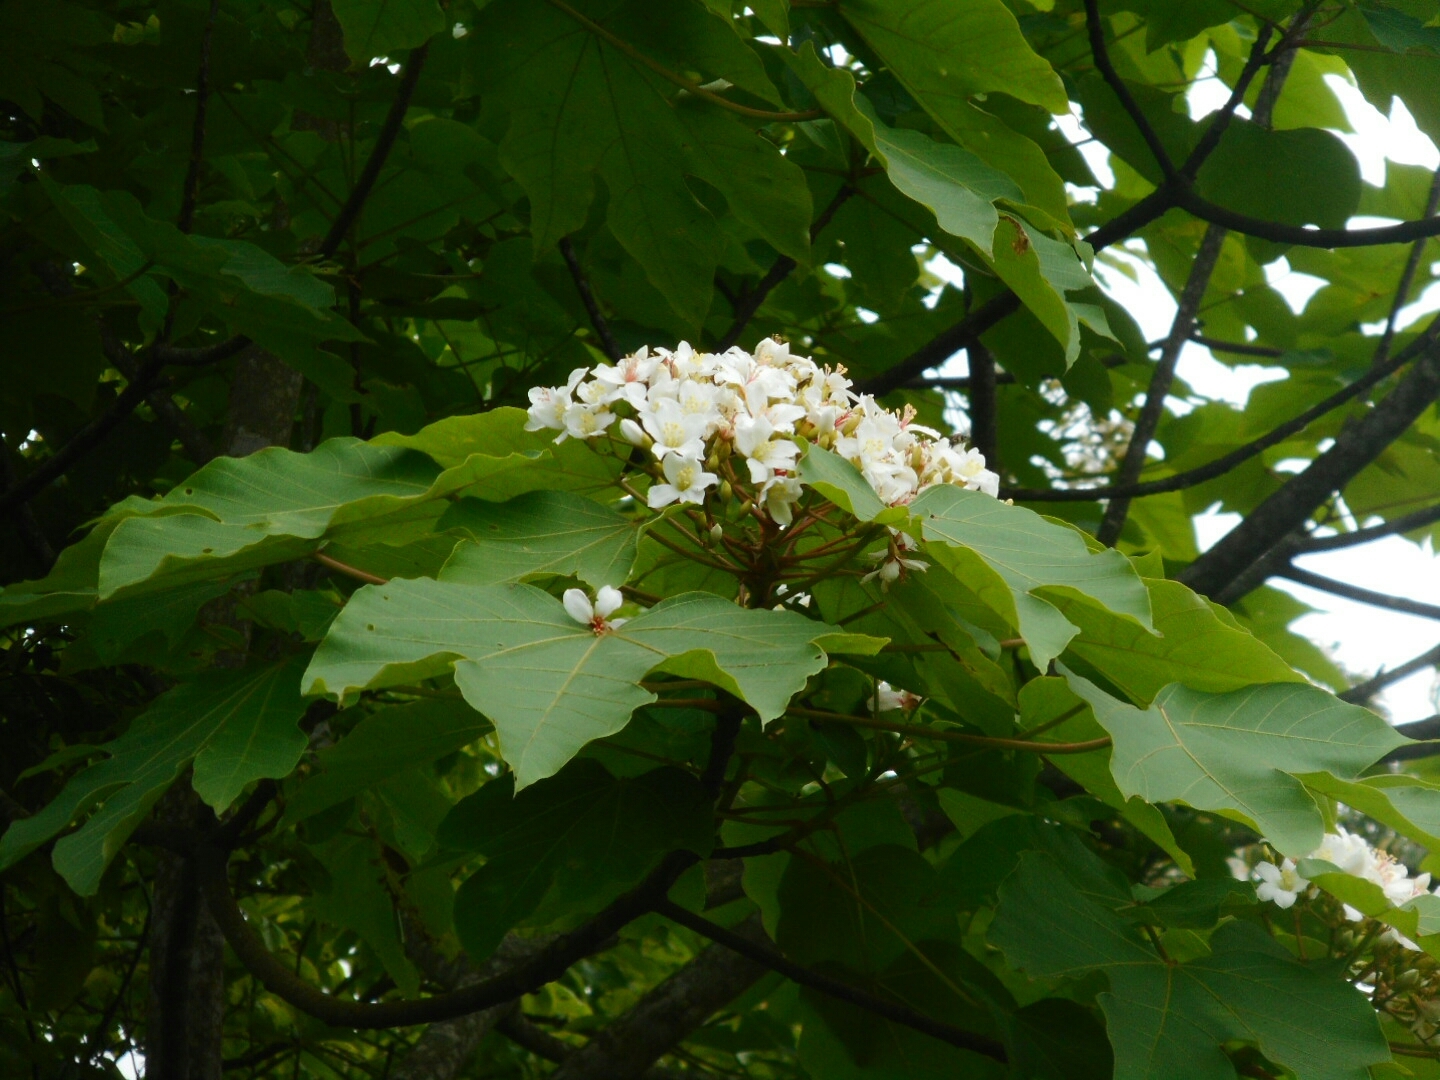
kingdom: Plantae
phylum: Tracheophyta
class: Magnoliopsida
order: Malpighiales
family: Euphorbiaceae
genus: Vernicia
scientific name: Vernicia montana
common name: Mu oil tree
